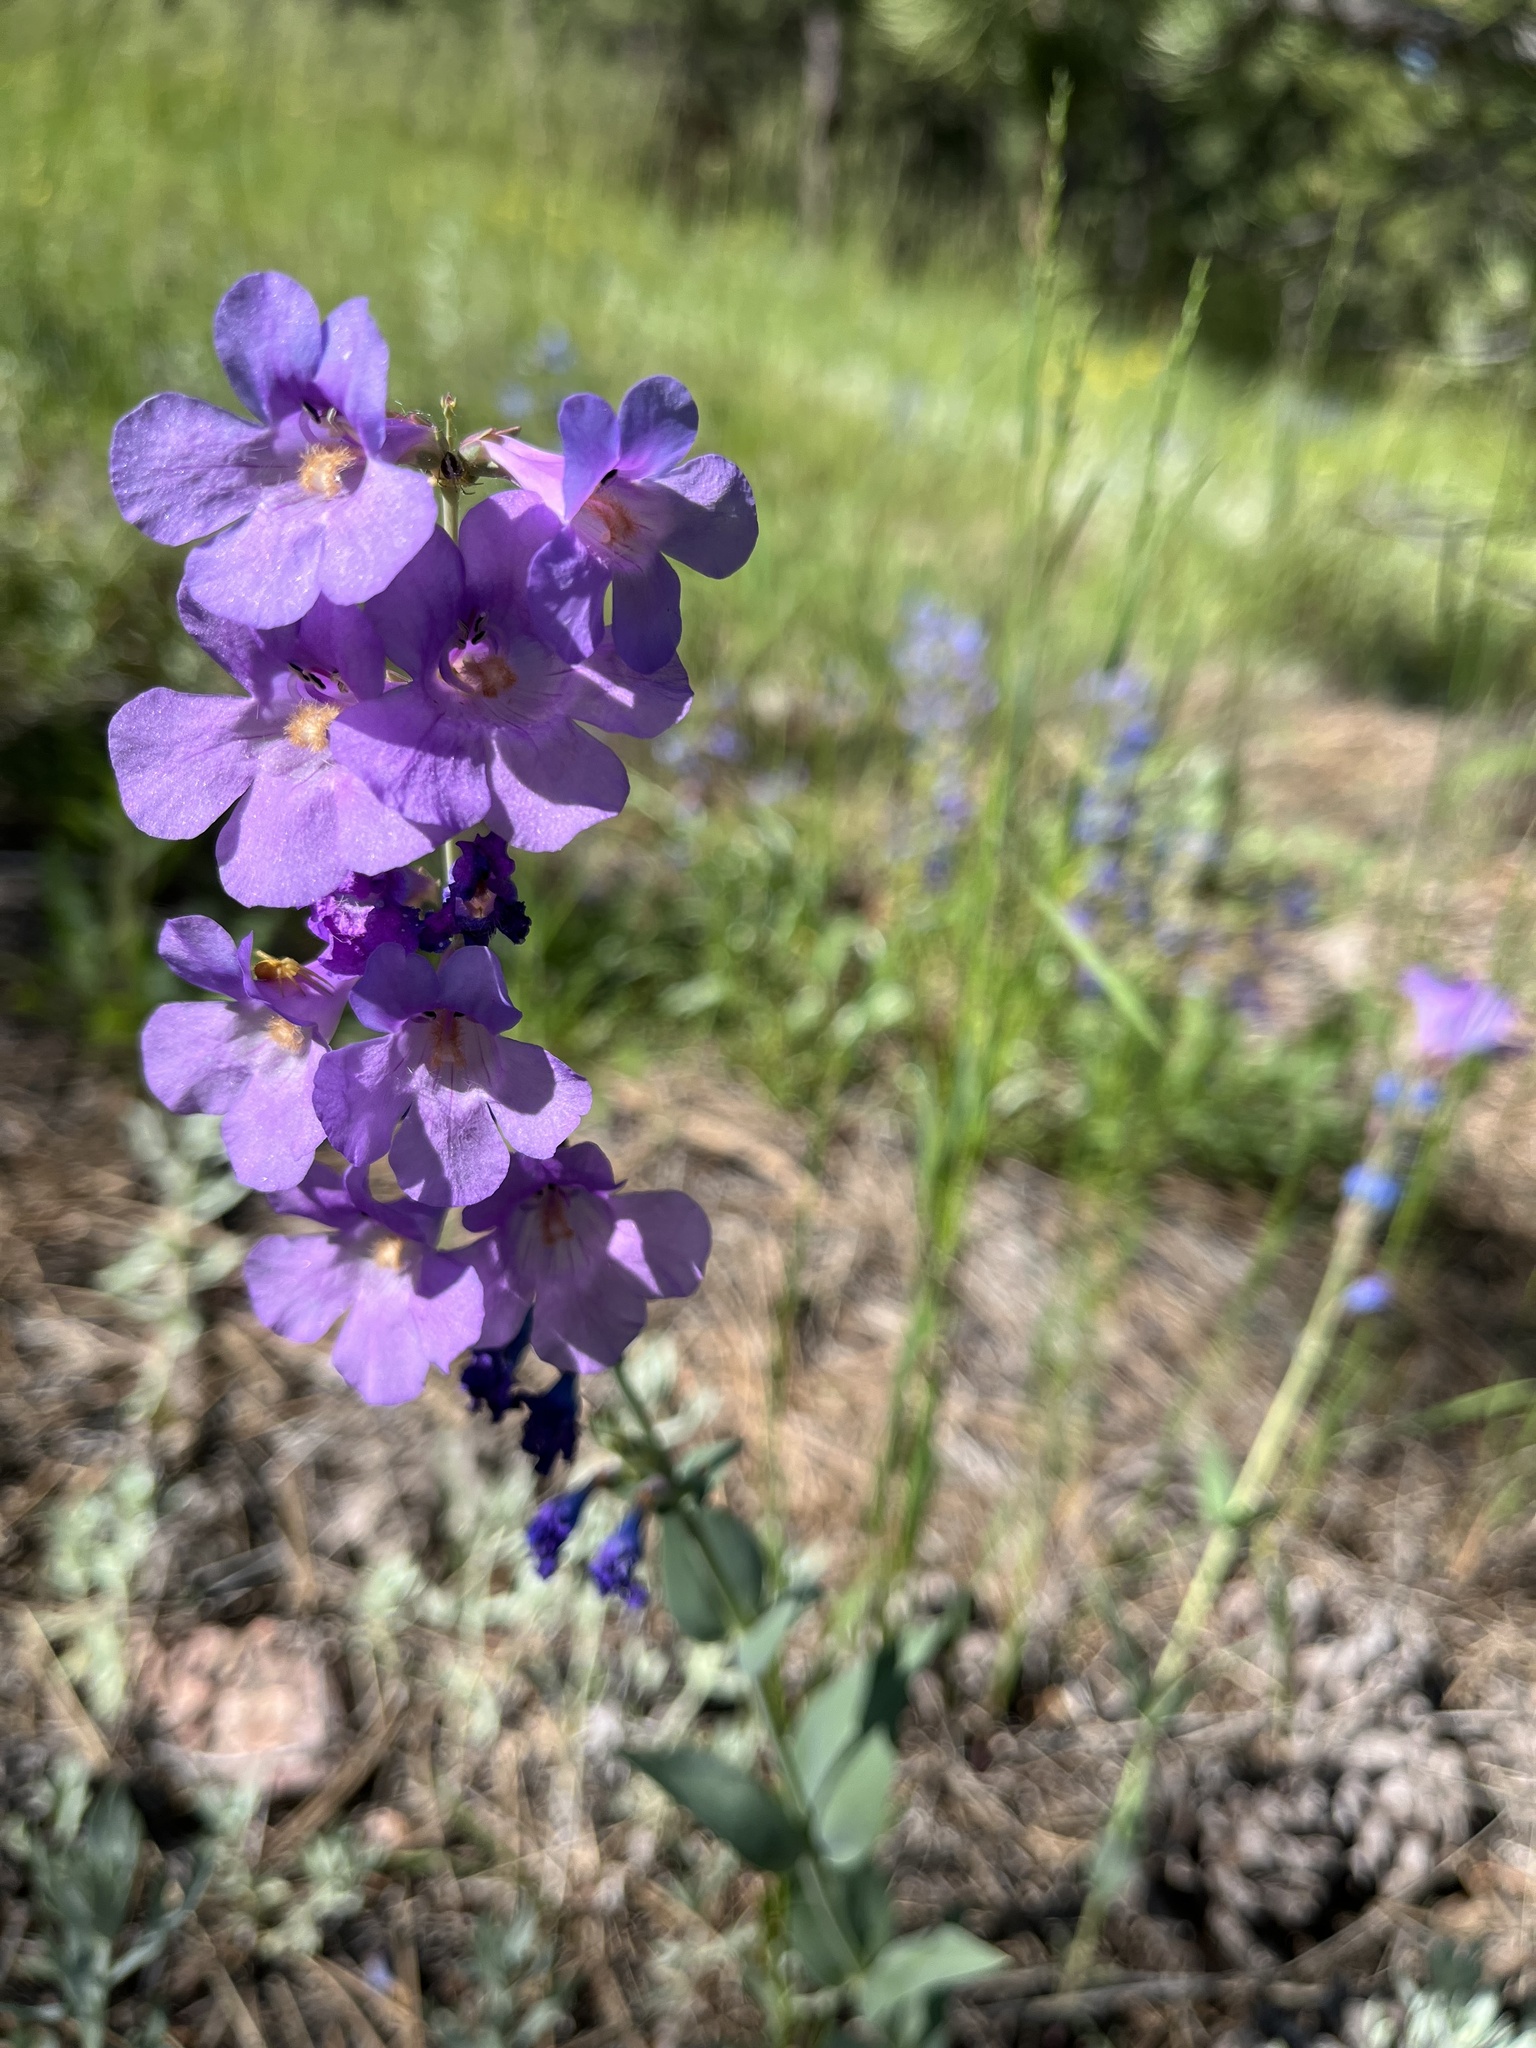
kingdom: Plantae
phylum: Tracheophyta
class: Magnoliopsida
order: Lamiales
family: Plantaginaceae
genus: Penstemon
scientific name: Penstemon secundiflorus
